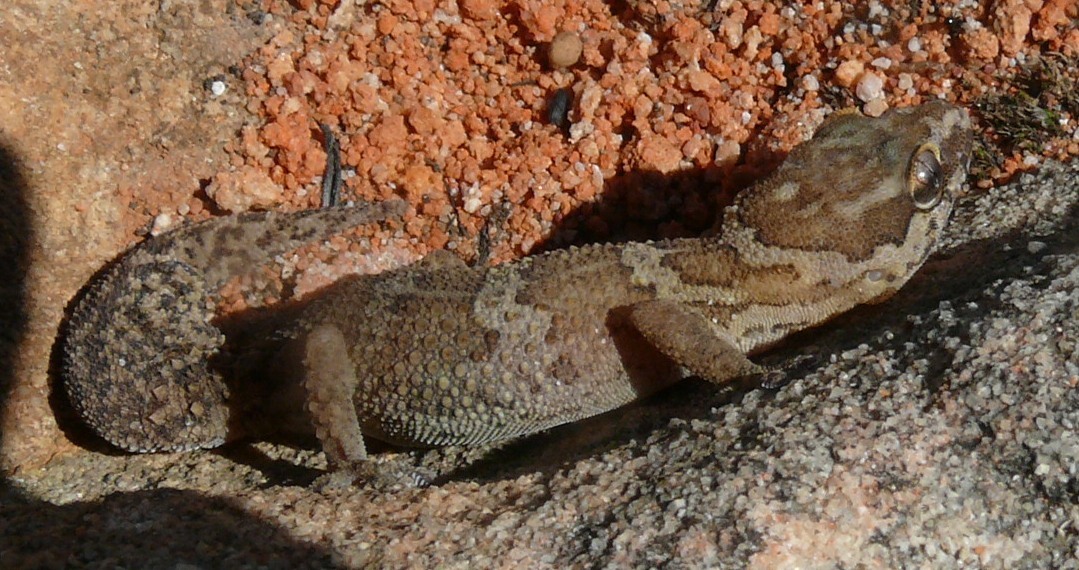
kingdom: Animalia
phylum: Chordata
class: Squamata
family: Gekkonidae
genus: Pachydactylus
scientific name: Pachydactylus formosus
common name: Southern rough gecko
